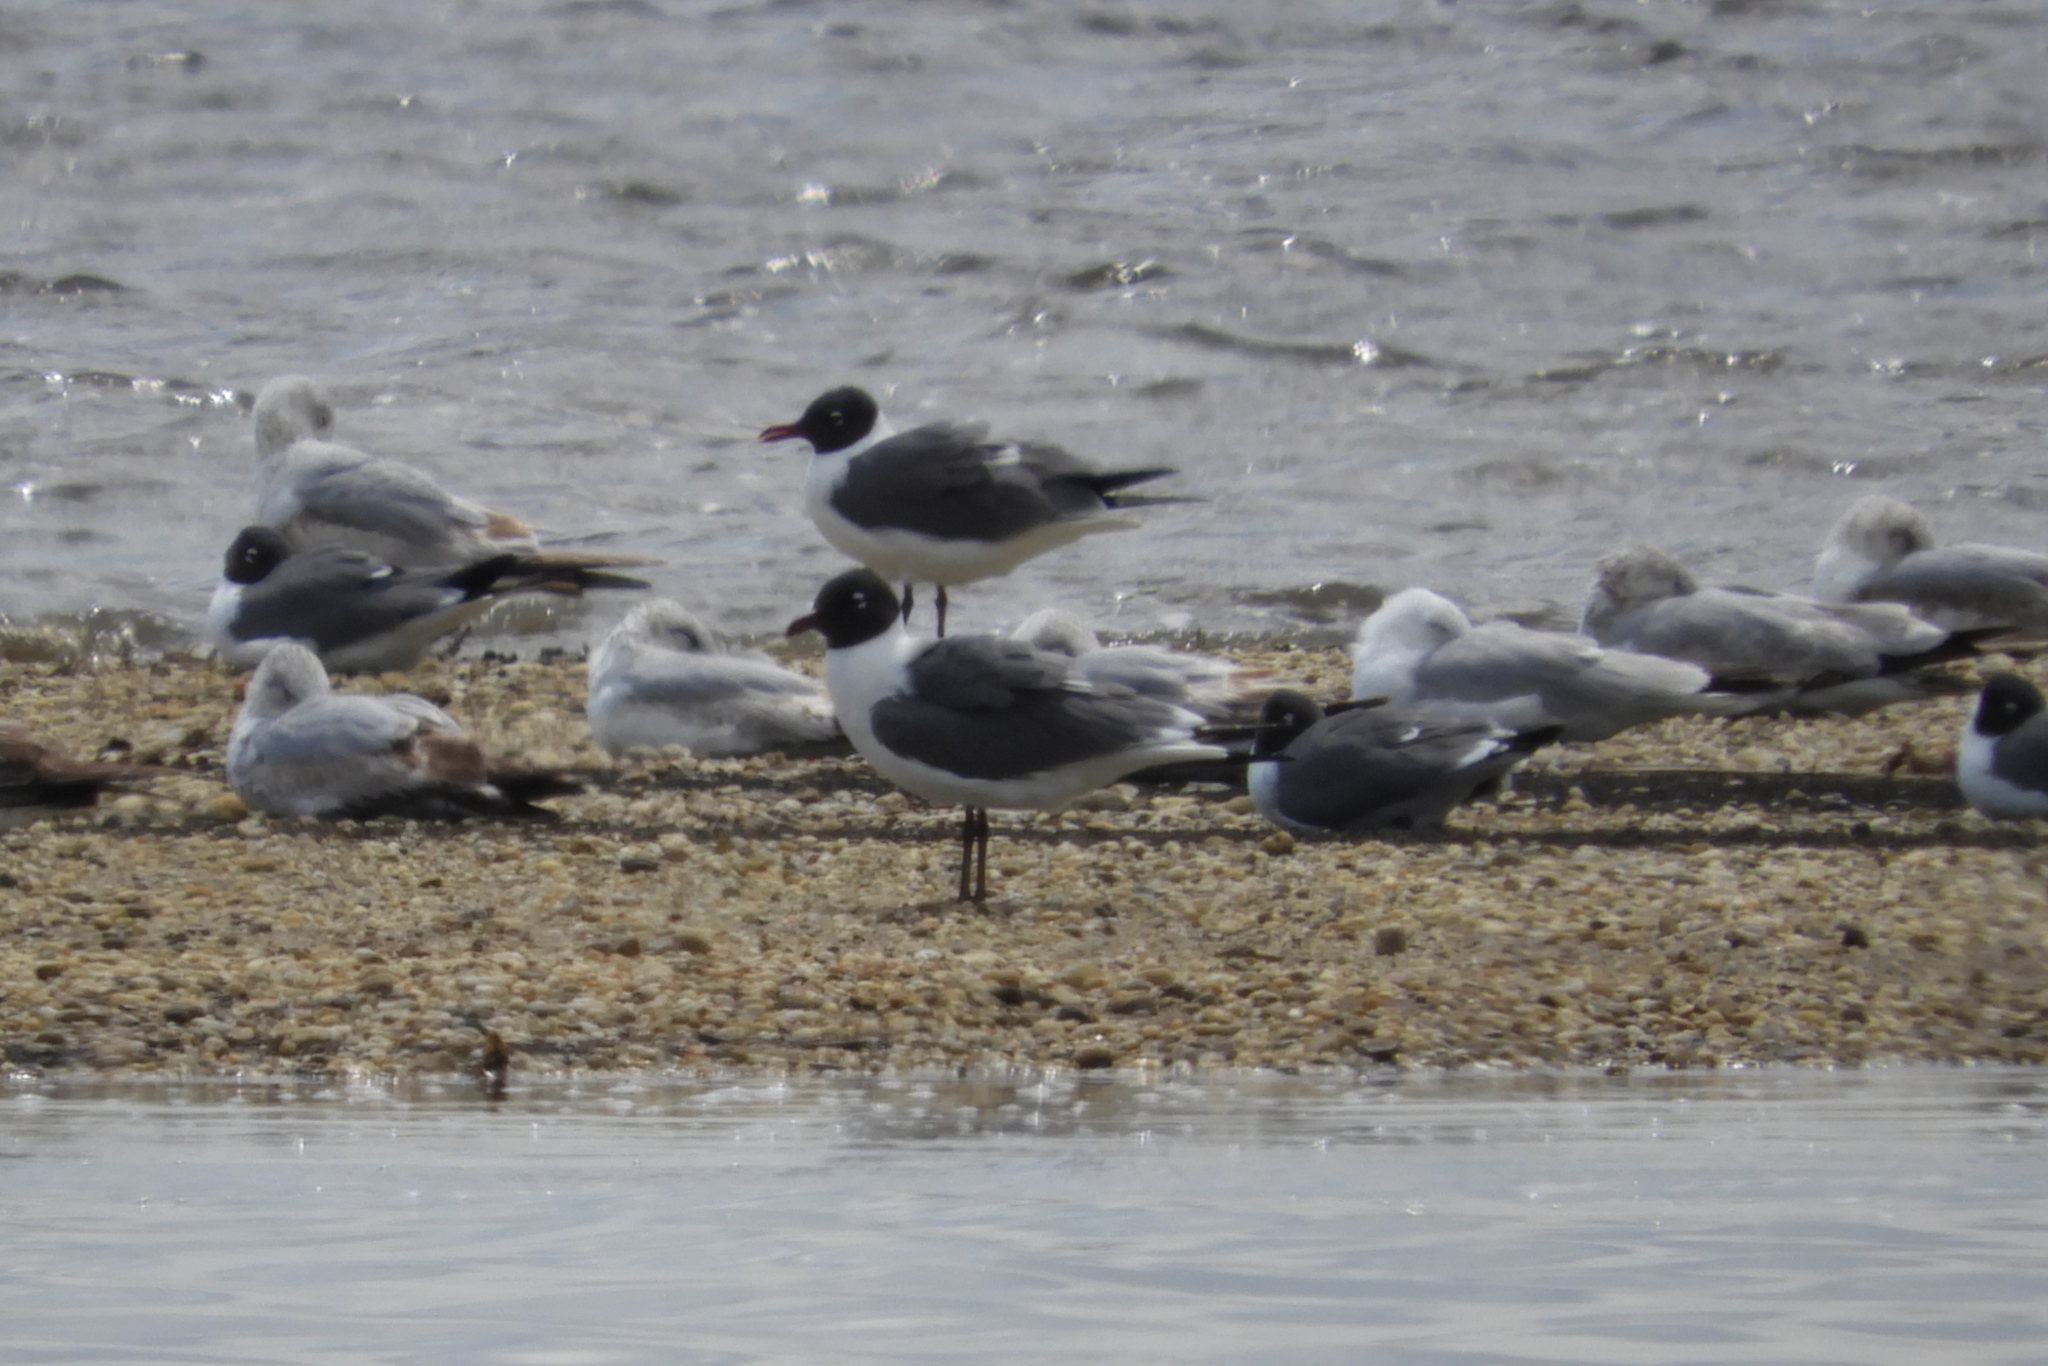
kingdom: Animalia
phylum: Chordata
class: Aves
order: Charadriiformes
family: Laridae
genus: Leucophaeus
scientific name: Leucophaeus atricilla
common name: Laughing gull
